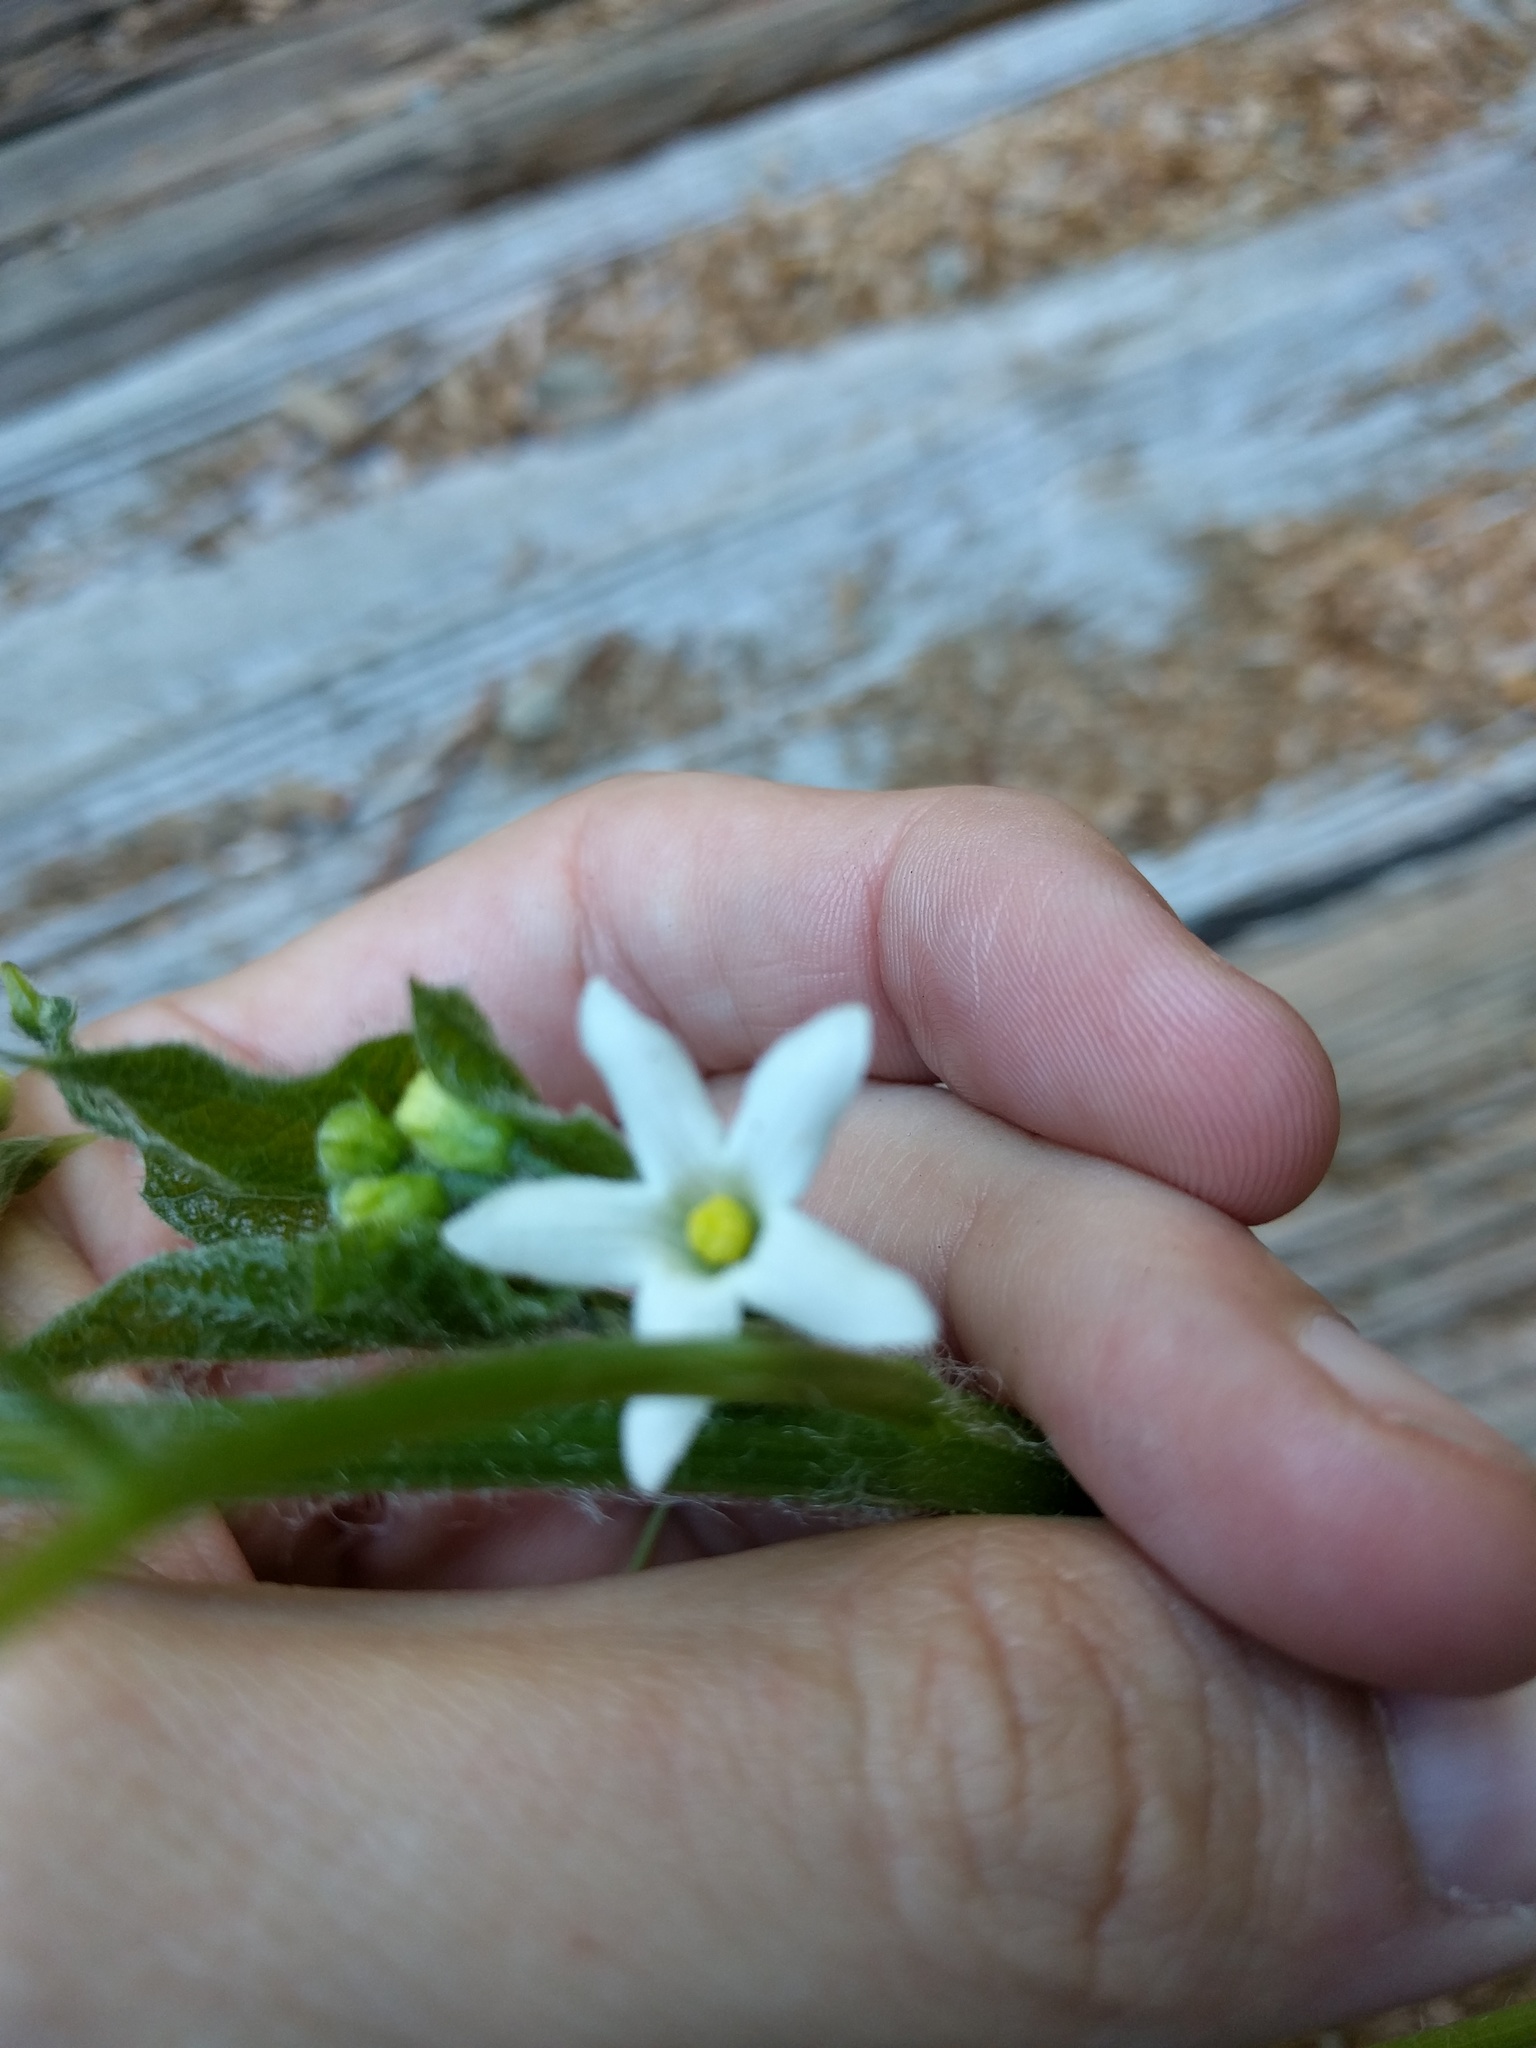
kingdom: Plantae
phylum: Tracheophyta
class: Magnoliopsida
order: Cucurbitales
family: Cucurbitaceae
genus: Marah
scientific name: Marah oregana
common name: Coastal manroot
